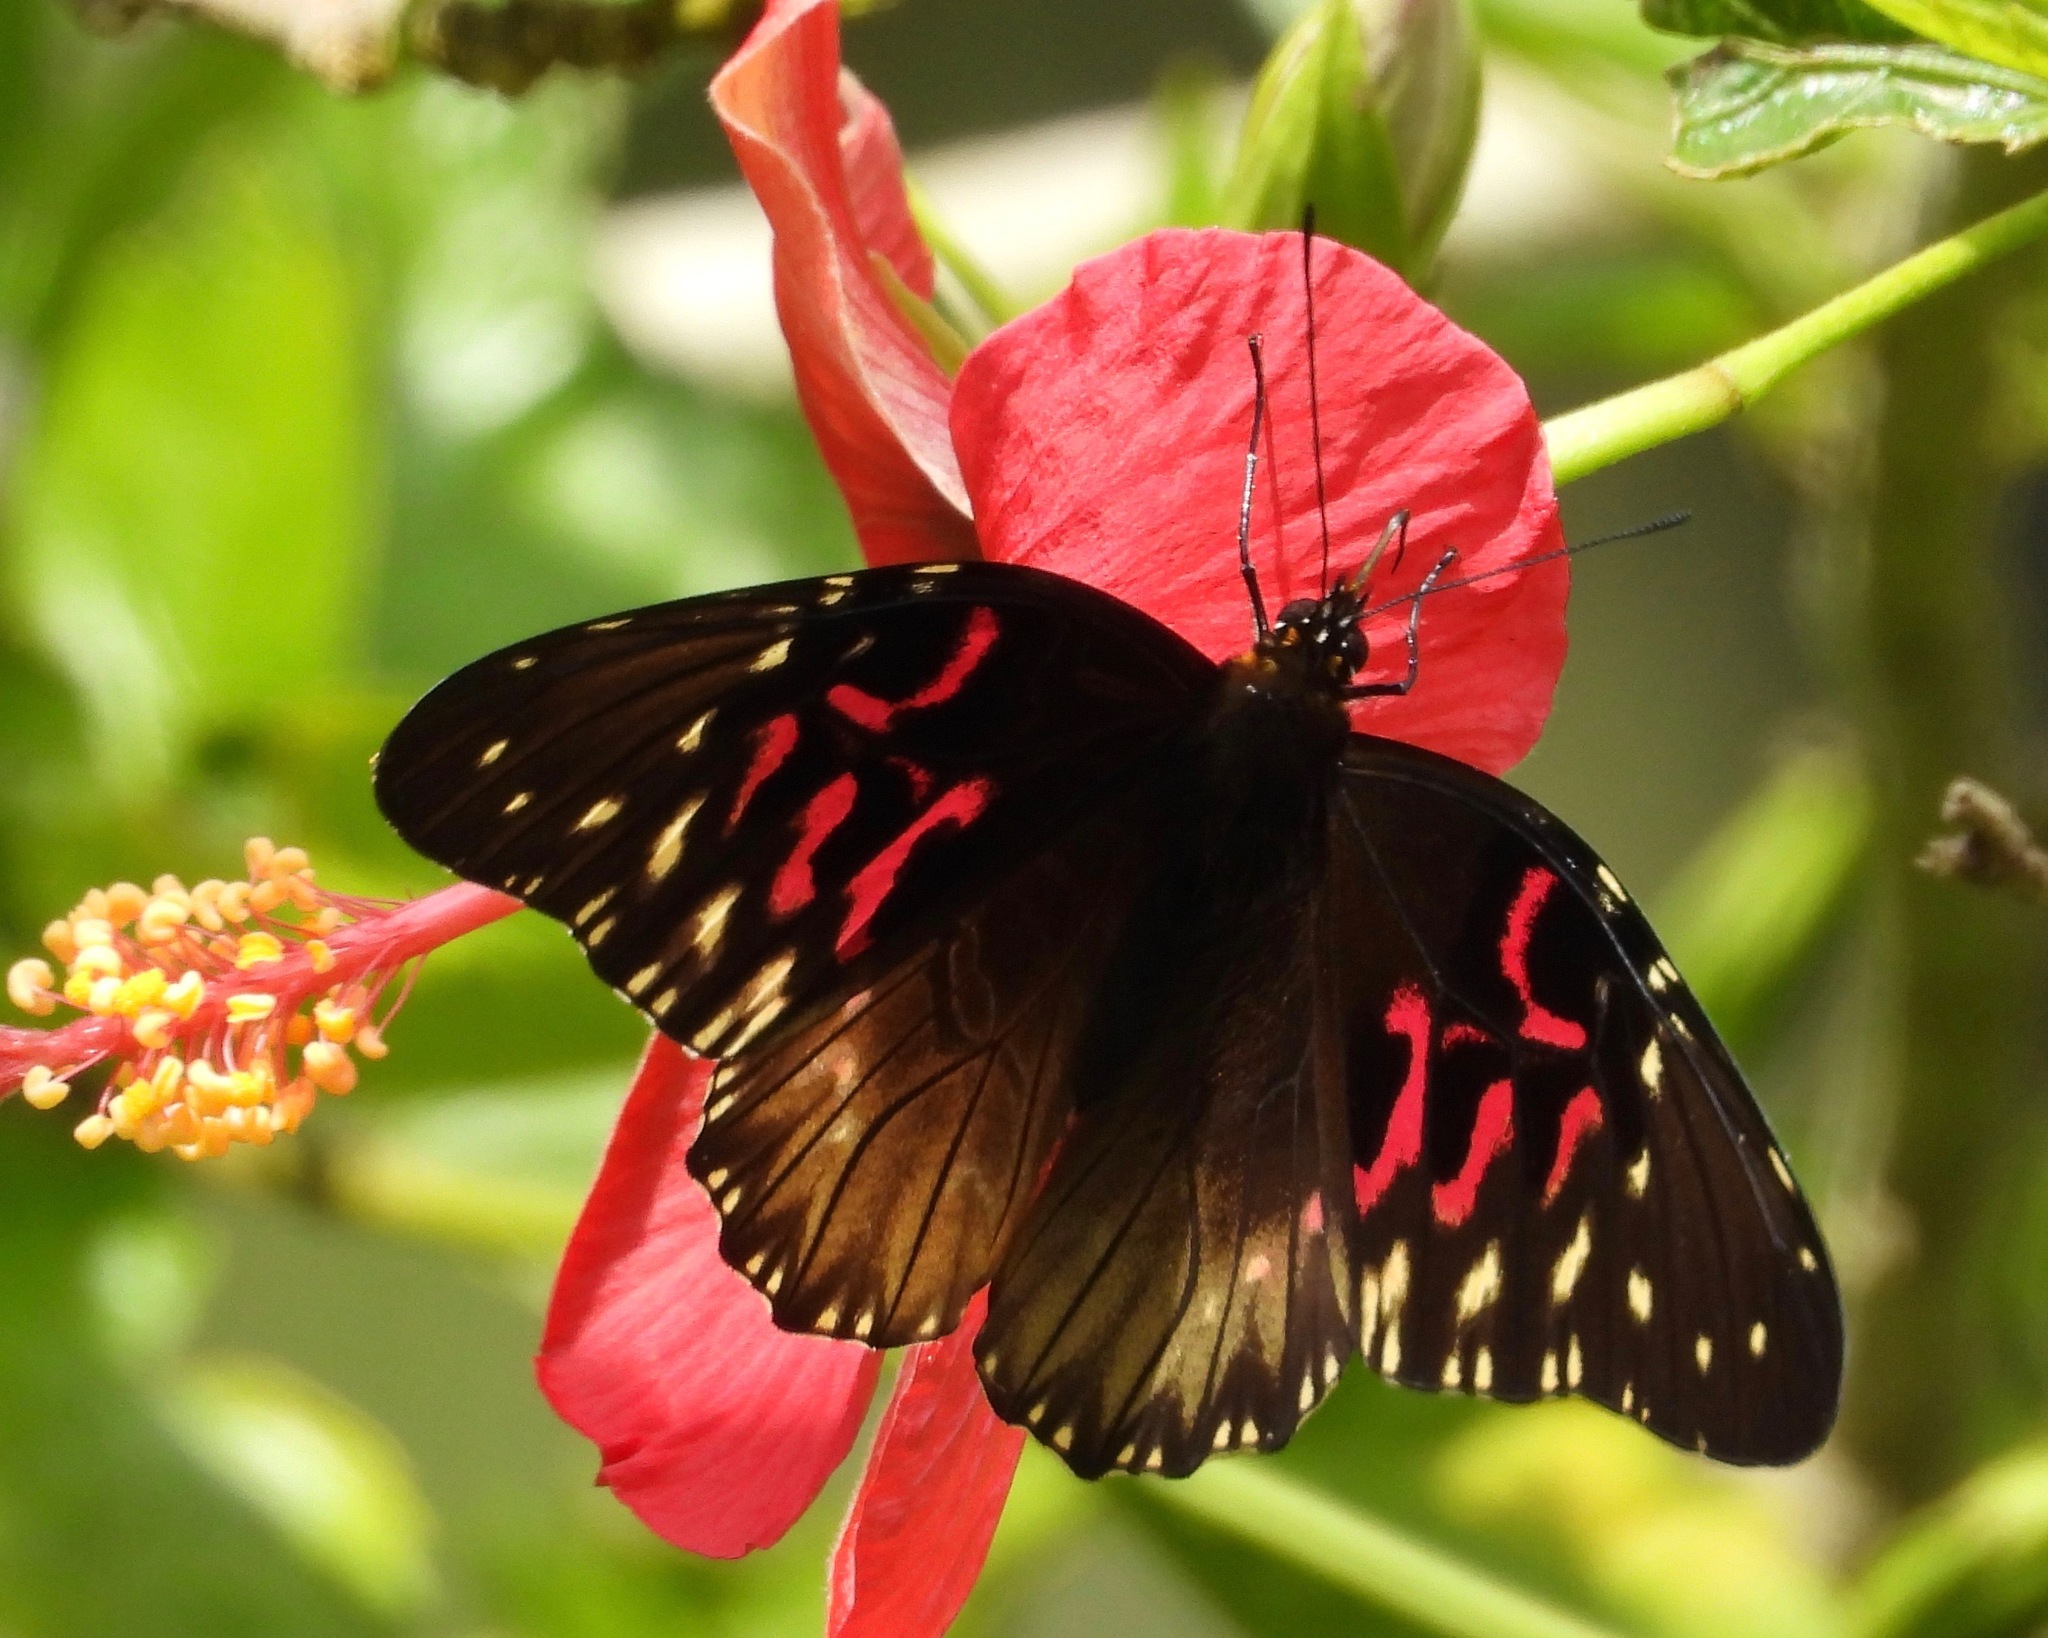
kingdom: Animalia
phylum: Arthropoda
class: Insecta
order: Lepidoptera
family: Nymphalidae
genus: Anetia
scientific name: Anetia thirza
